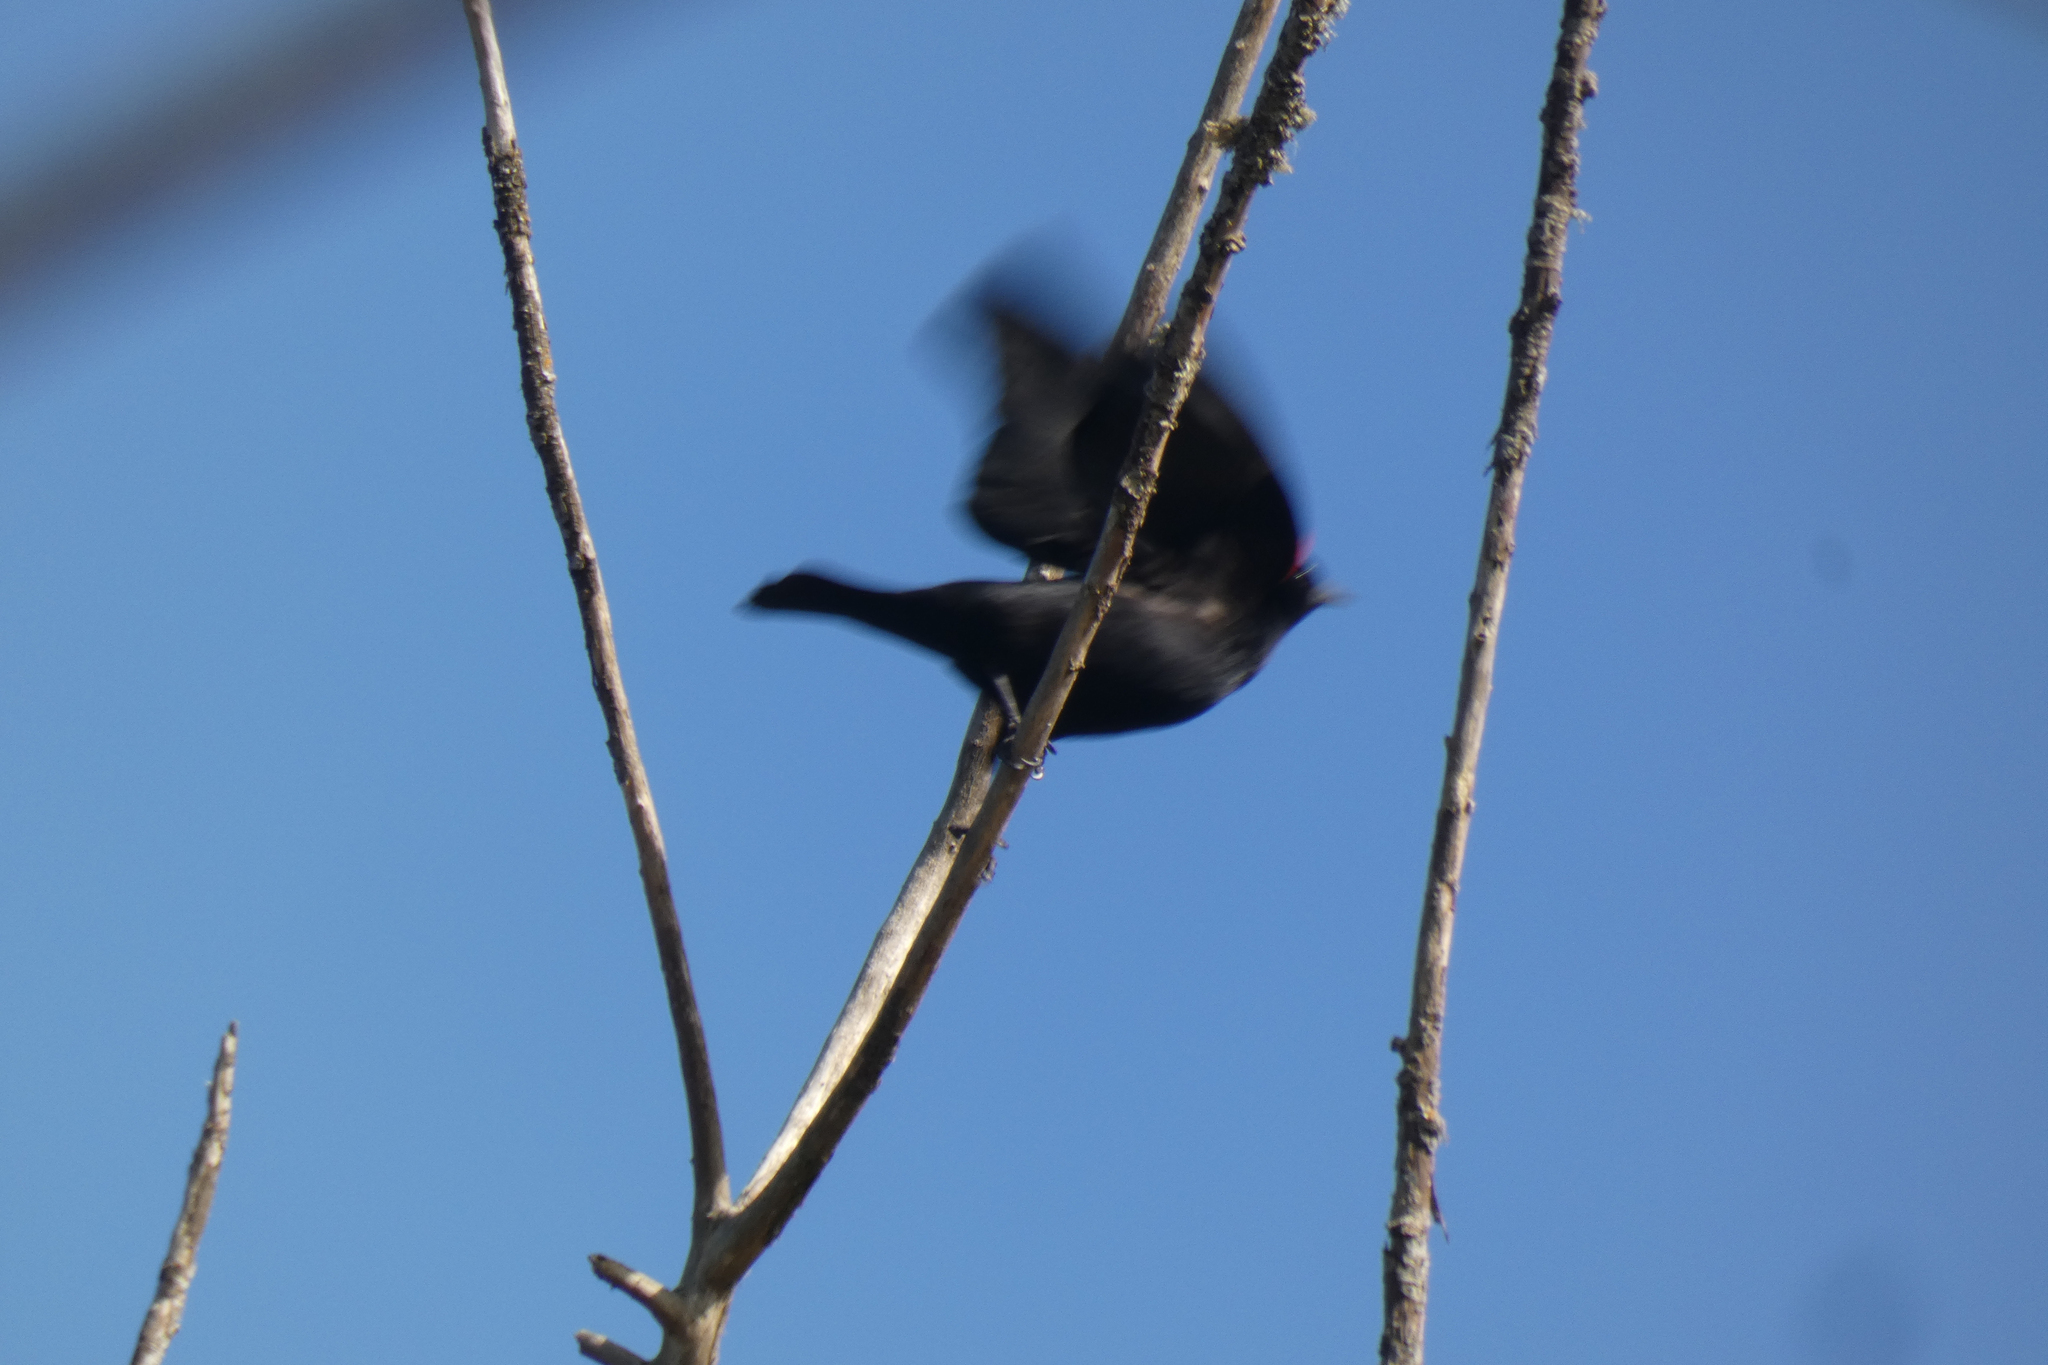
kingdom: Animalia
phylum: Chordata
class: Aves
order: Passeriformes
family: Icteridae
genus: Agelaius
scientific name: Agelaius phoeniceus
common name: Red-winged blackbird
